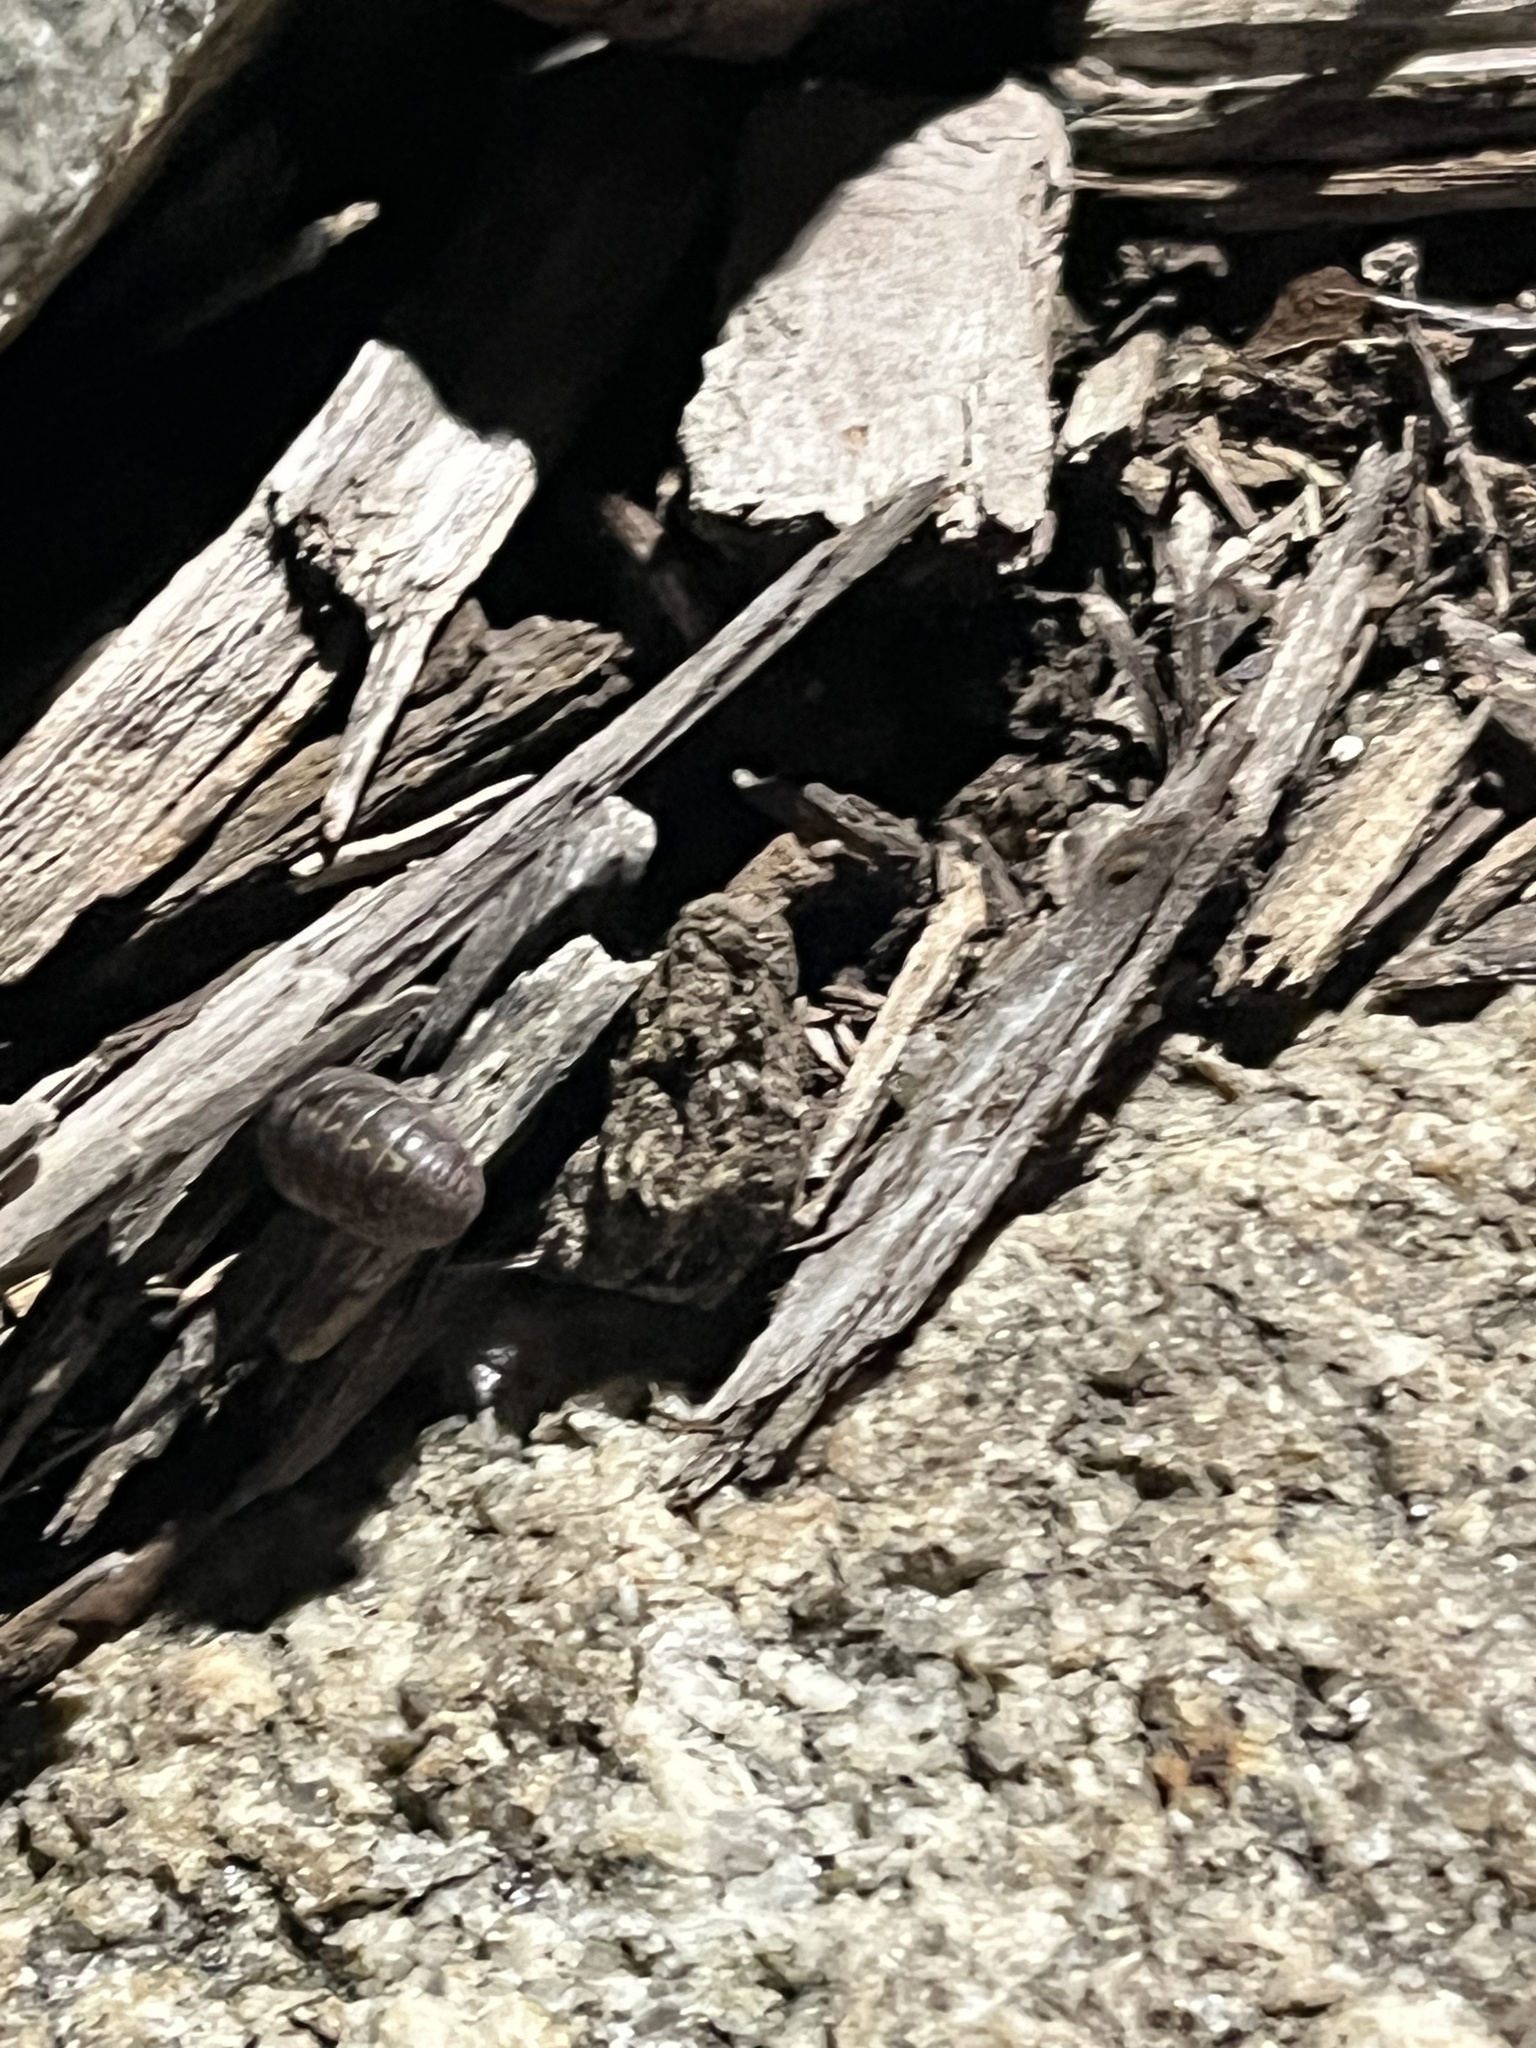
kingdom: Animalia
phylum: Arthropoda
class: Malacostraca
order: Isopoda
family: Armadillidiidae
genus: Armadillidium
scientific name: Armadillidium vulgare
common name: Common pill woodlouse
